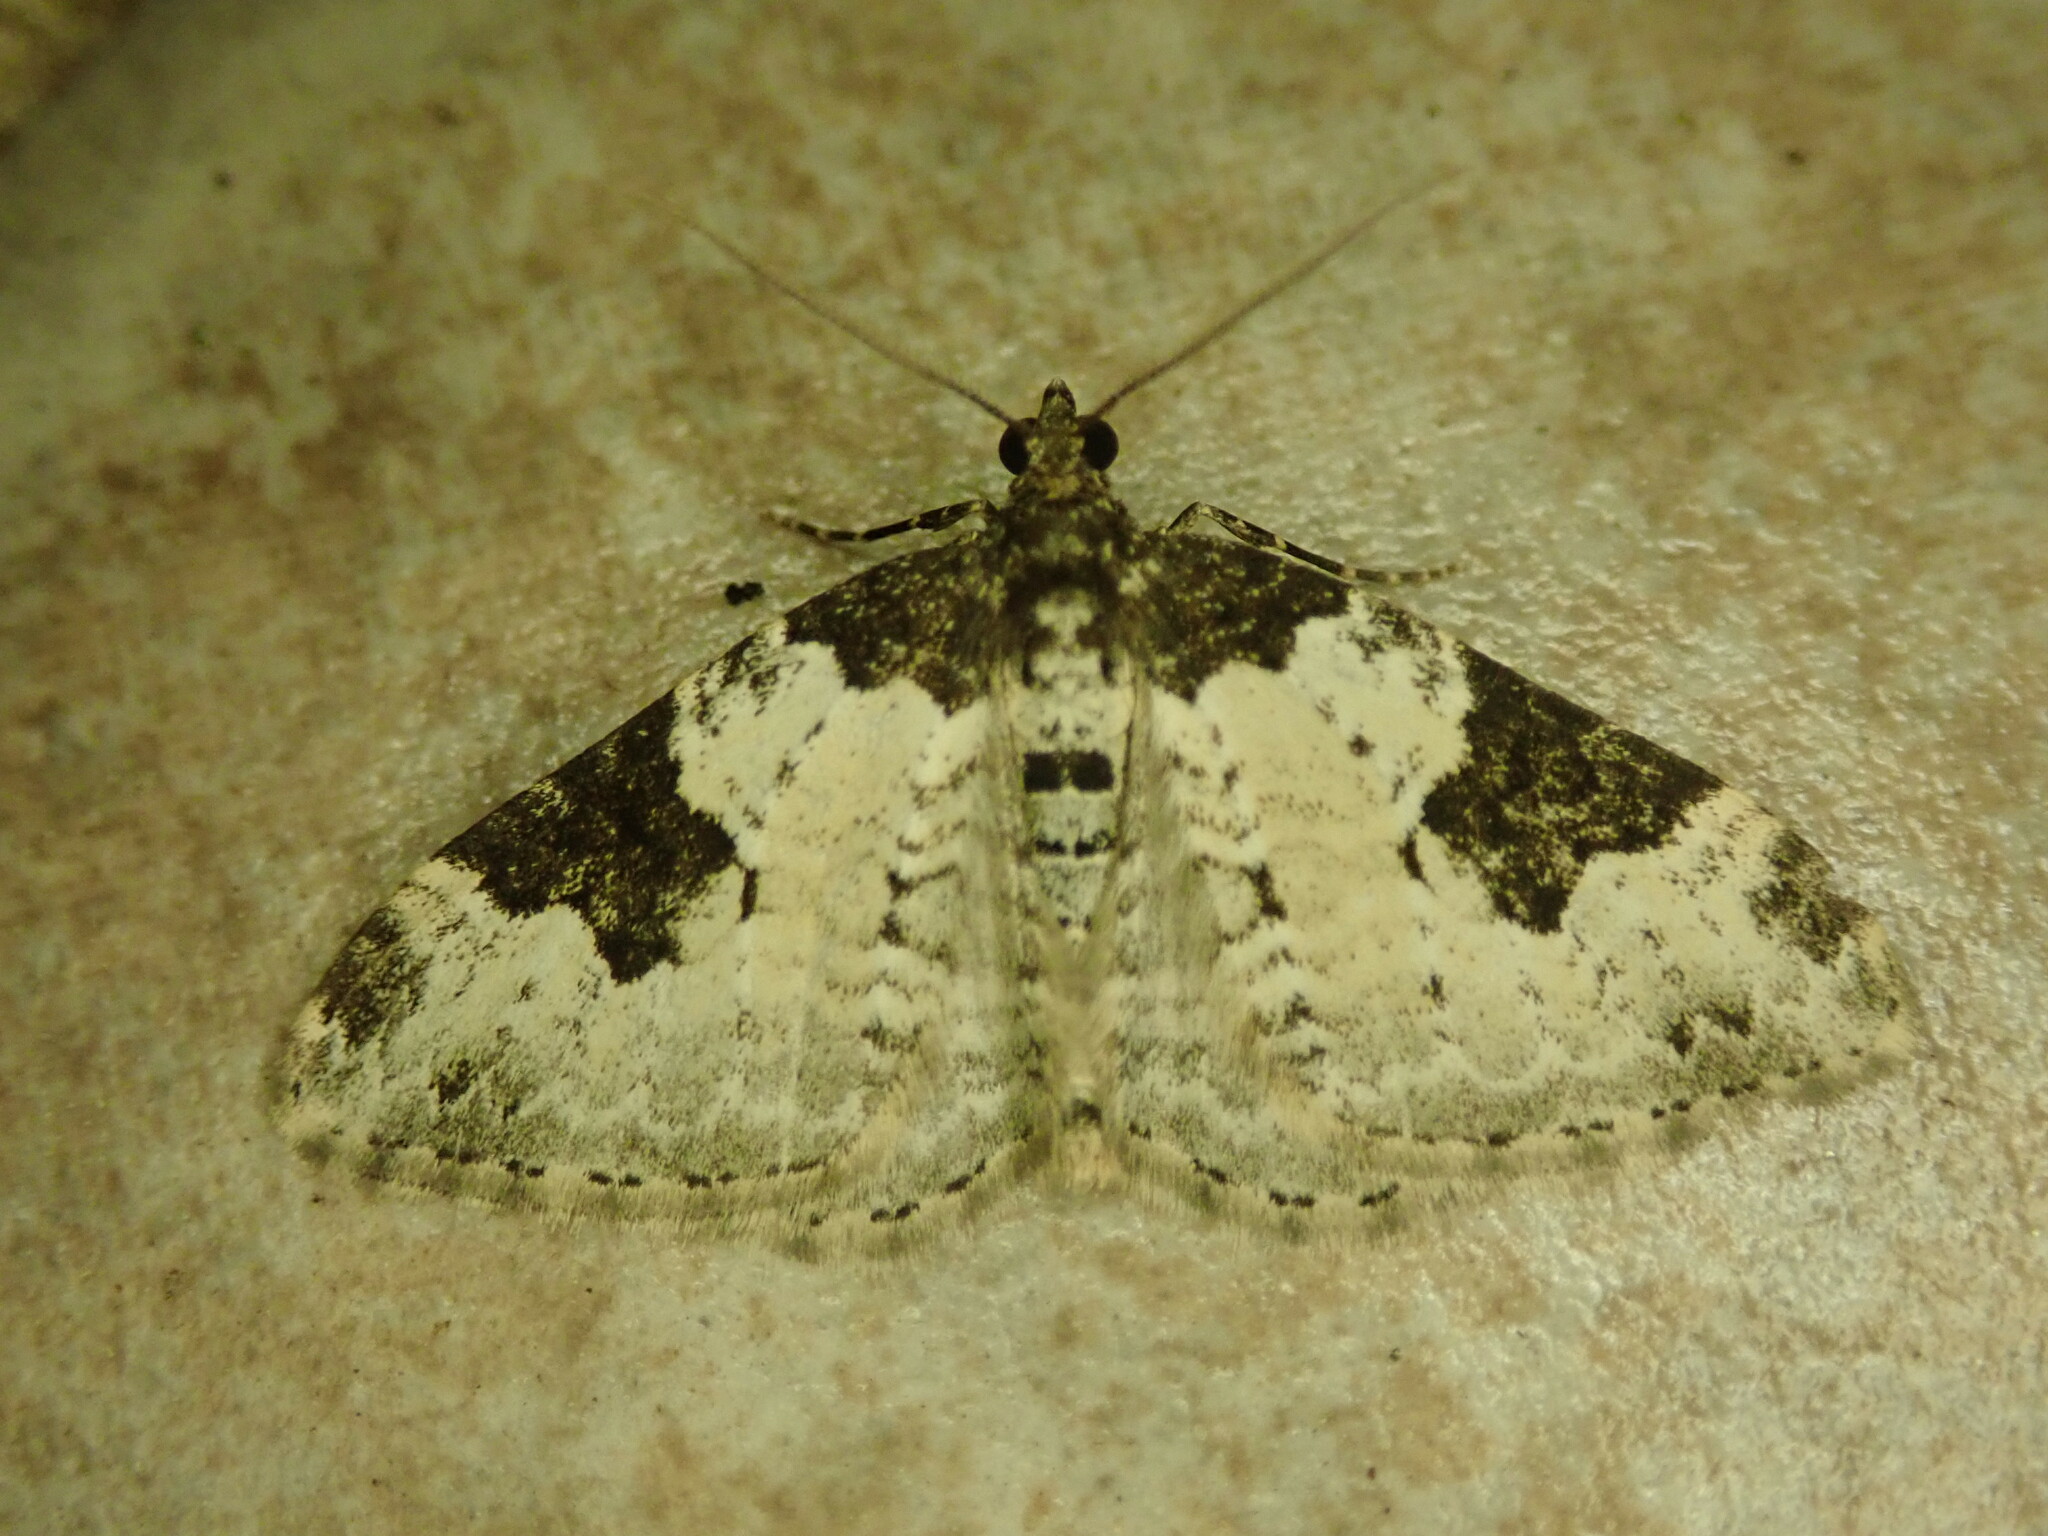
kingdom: Animalia
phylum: Arthropoda
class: Insecta
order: Lepidoptera
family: Geometridae
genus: Xanthorhoe
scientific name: Xanthorhoe fluctuata
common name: Garden carpet
